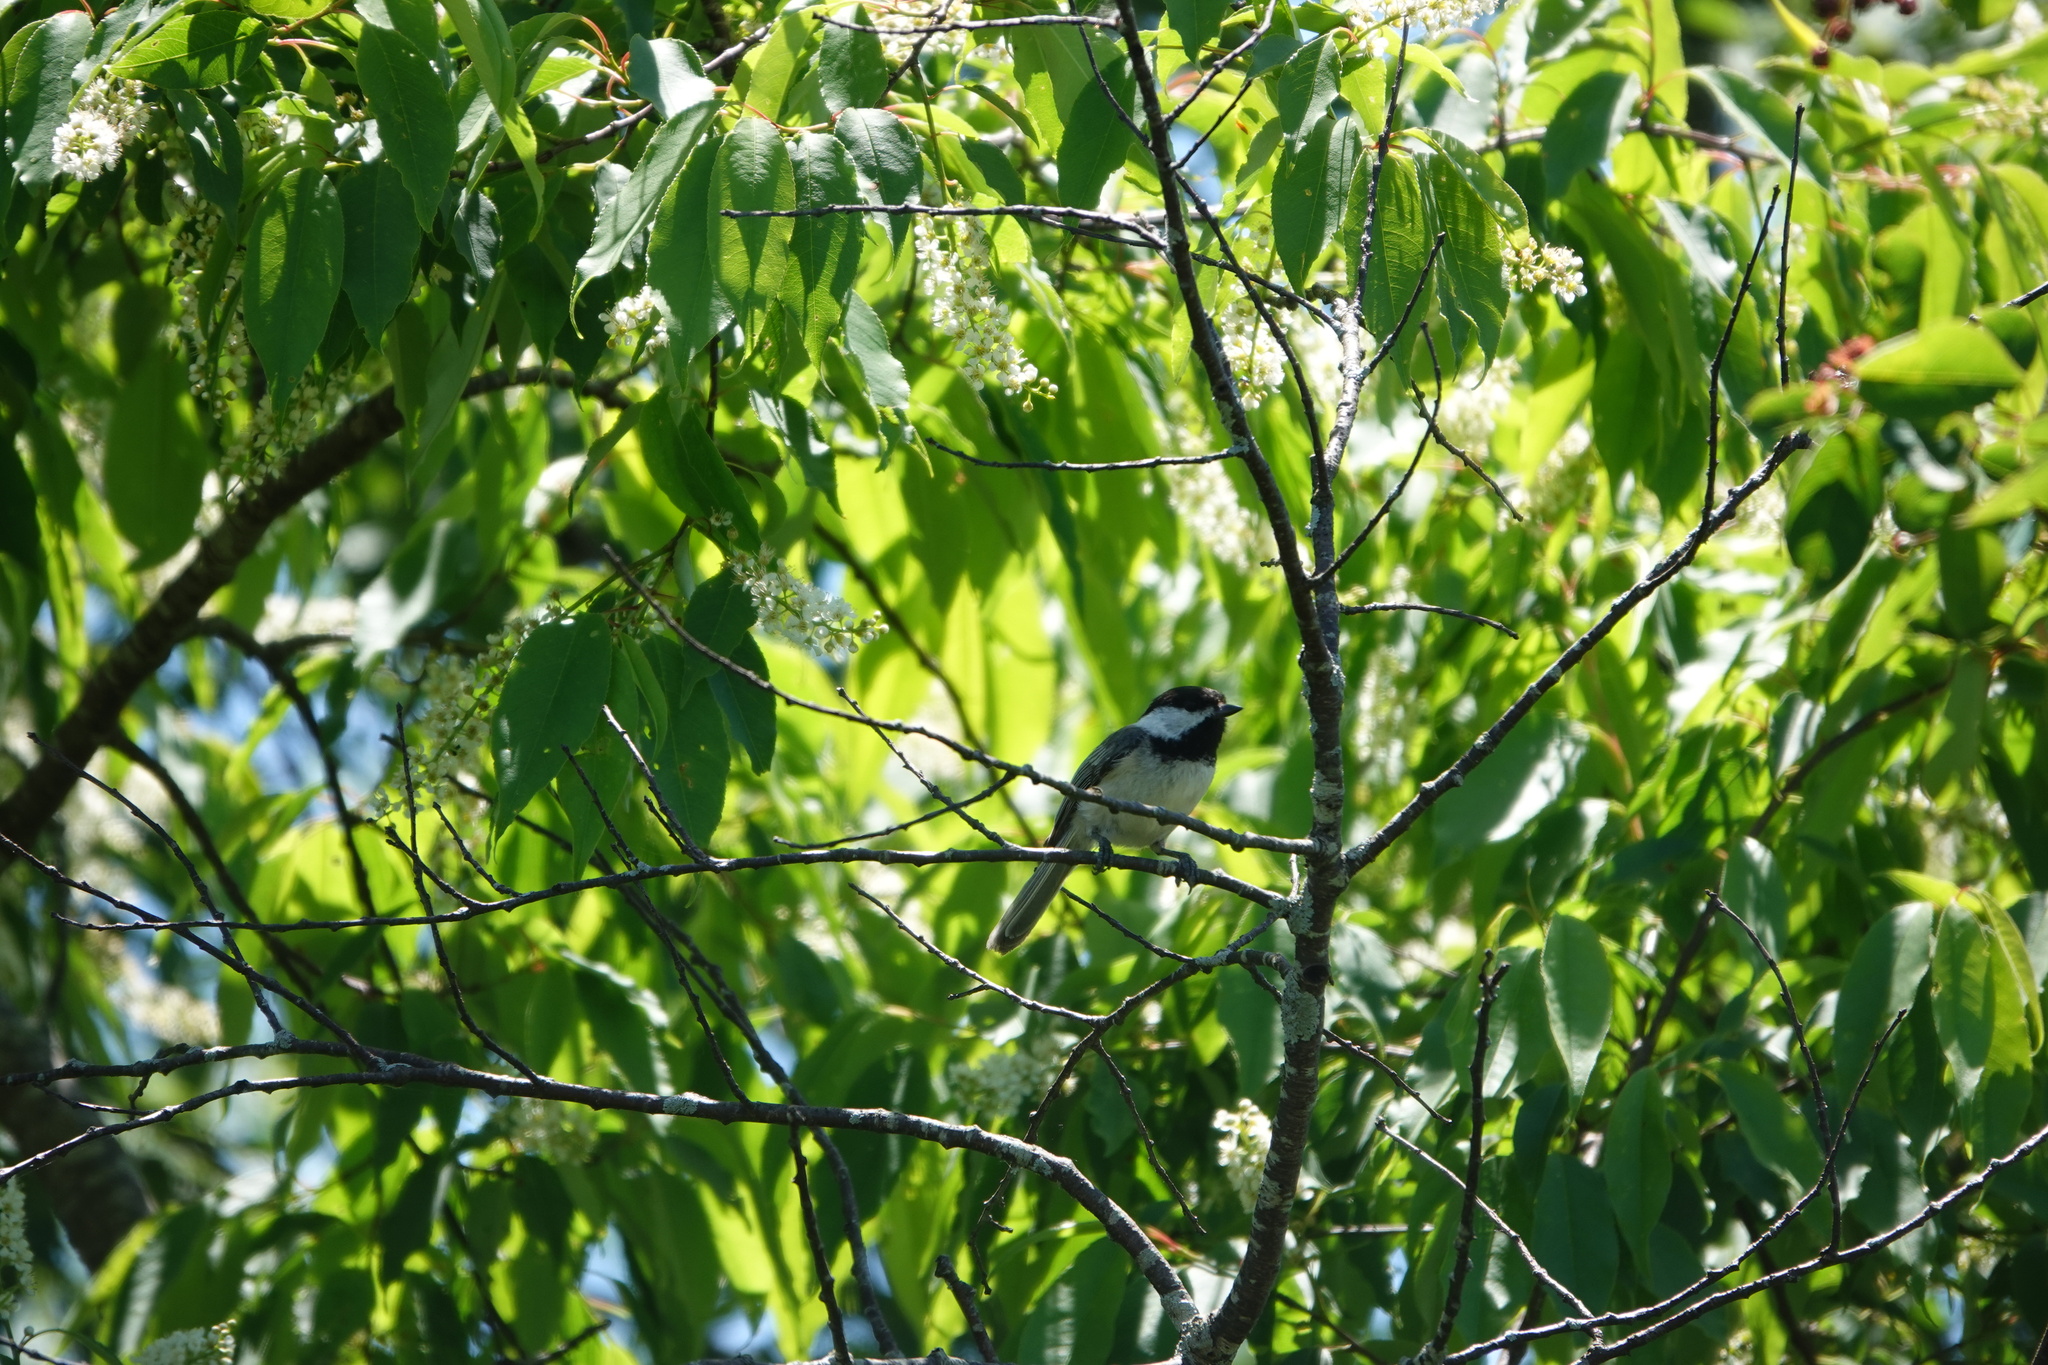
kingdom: Animalia
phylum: Chordata
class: Aves
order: Passeriformes
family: Paridae
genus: Poecile
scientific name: Poecile atricapillus
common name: Black-capped chickadee
